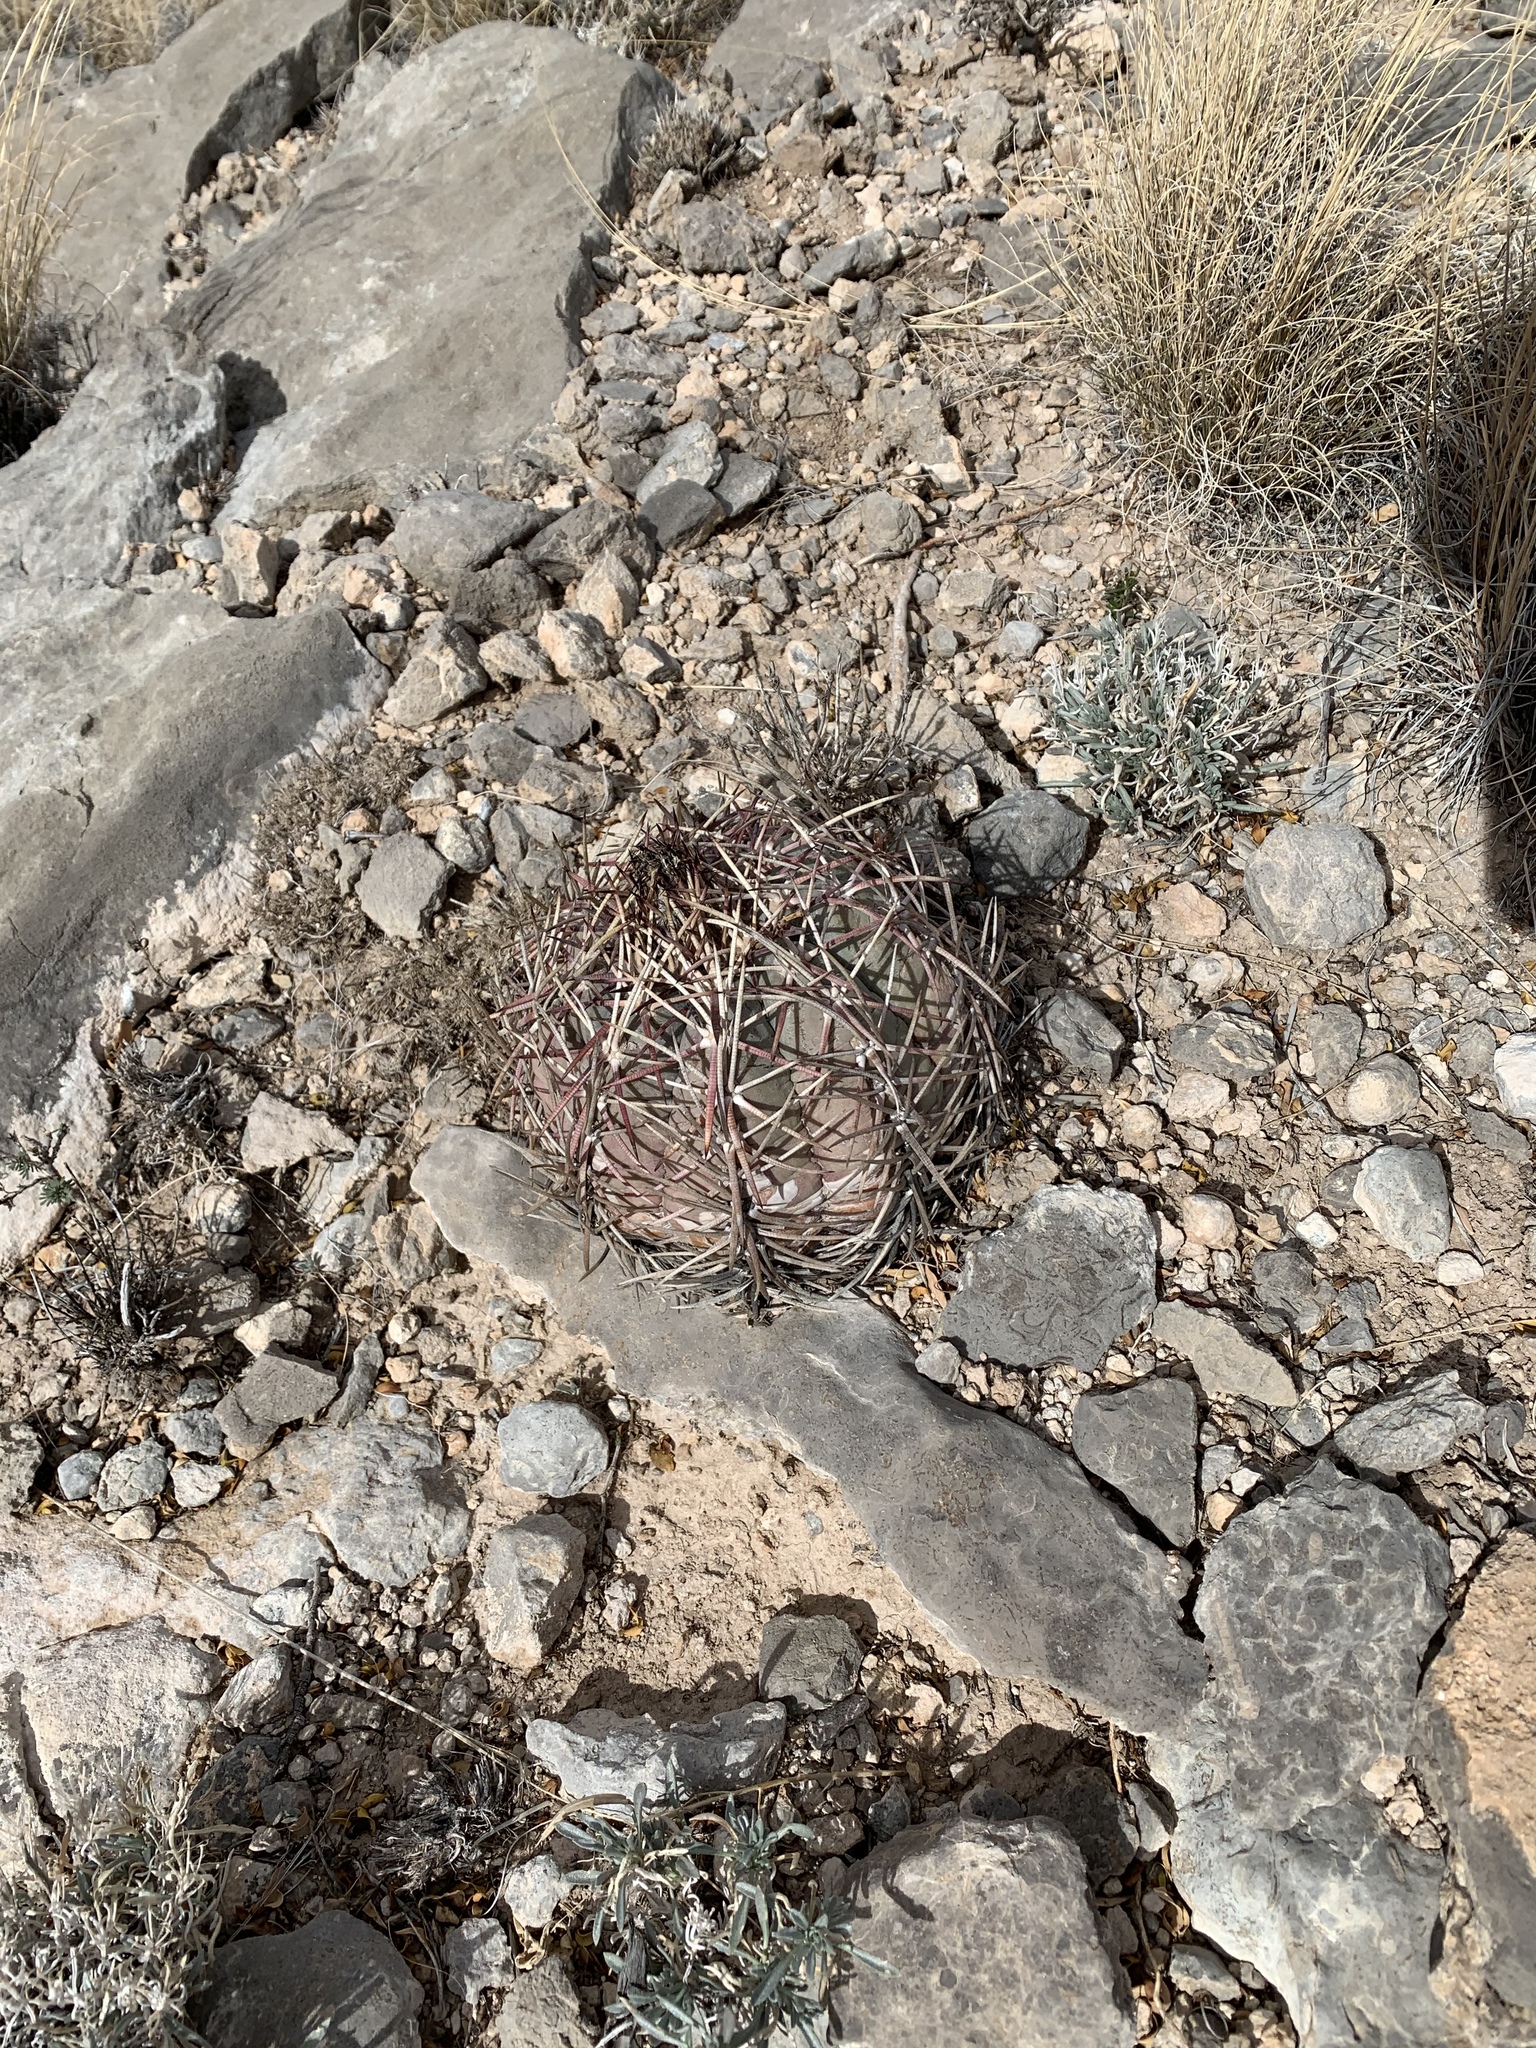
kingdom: Plantae
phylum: Tracheophyta
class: Magnoliopsida
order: Caryophyllales
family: Cactaceae
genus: Echinocactus
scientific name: Echinocactus horizonthalonius
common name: Devilshead
